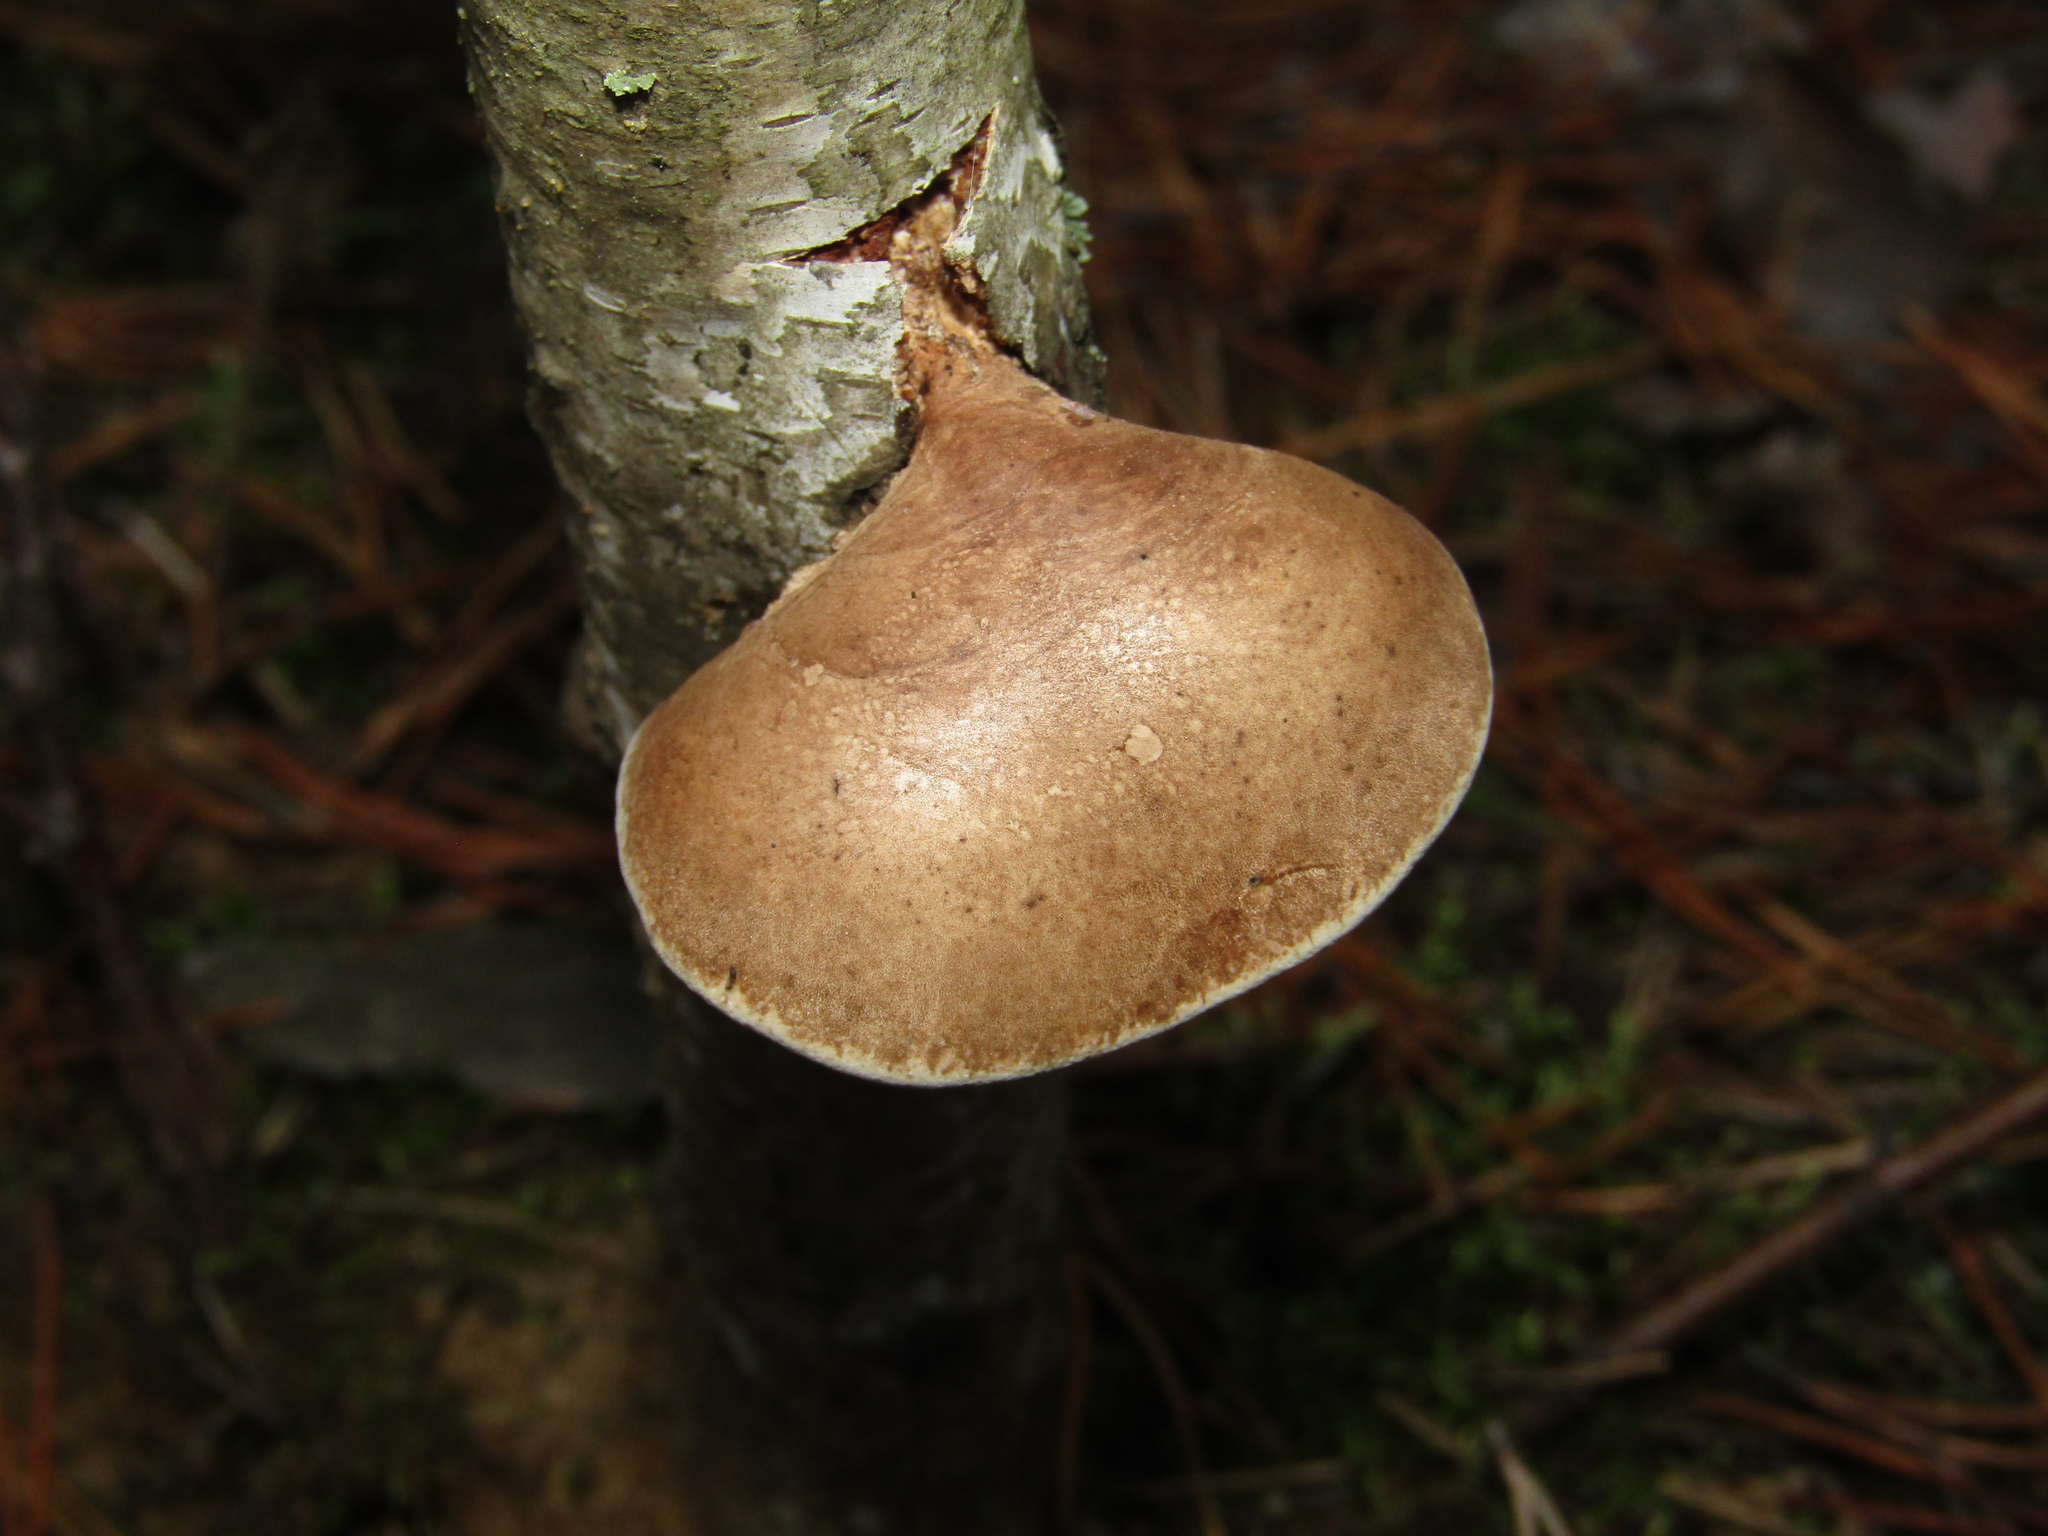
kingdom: Fungi
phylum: Basidiomycota
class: Agaricomycetes
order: Polyporales
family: Fomitopsidaceae
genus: Fomitopsis
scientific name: Fomitopsis betulina
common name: Birch polypore
